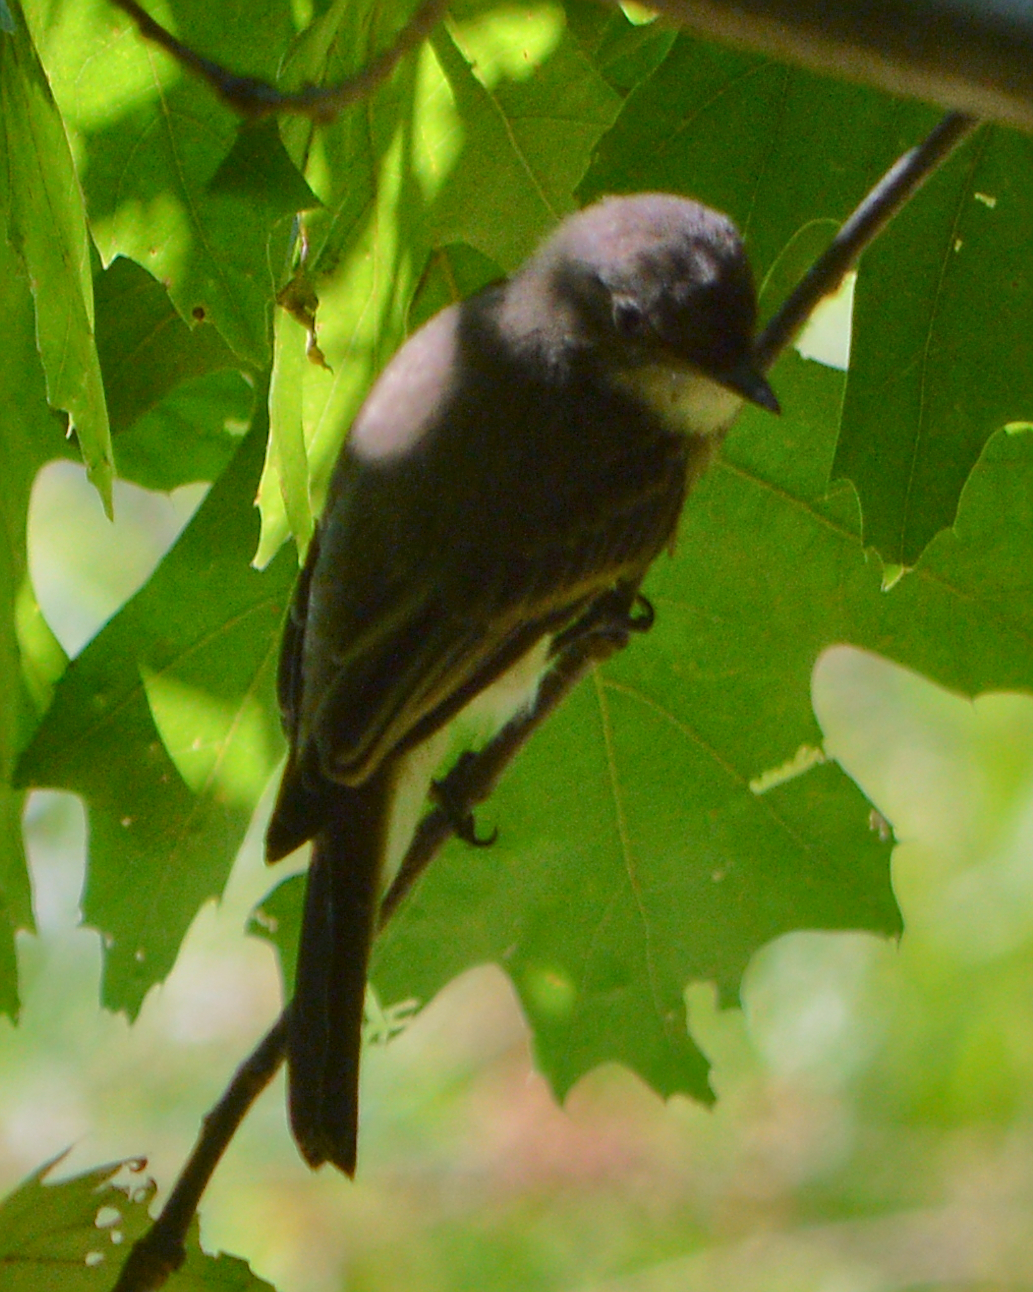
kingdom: Animalia
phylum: Chordata
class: Aves
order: Passeriformes
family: Tyrannidae
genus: Sayornis
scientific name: Sayornis phoebe
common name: Eastern phoebe
